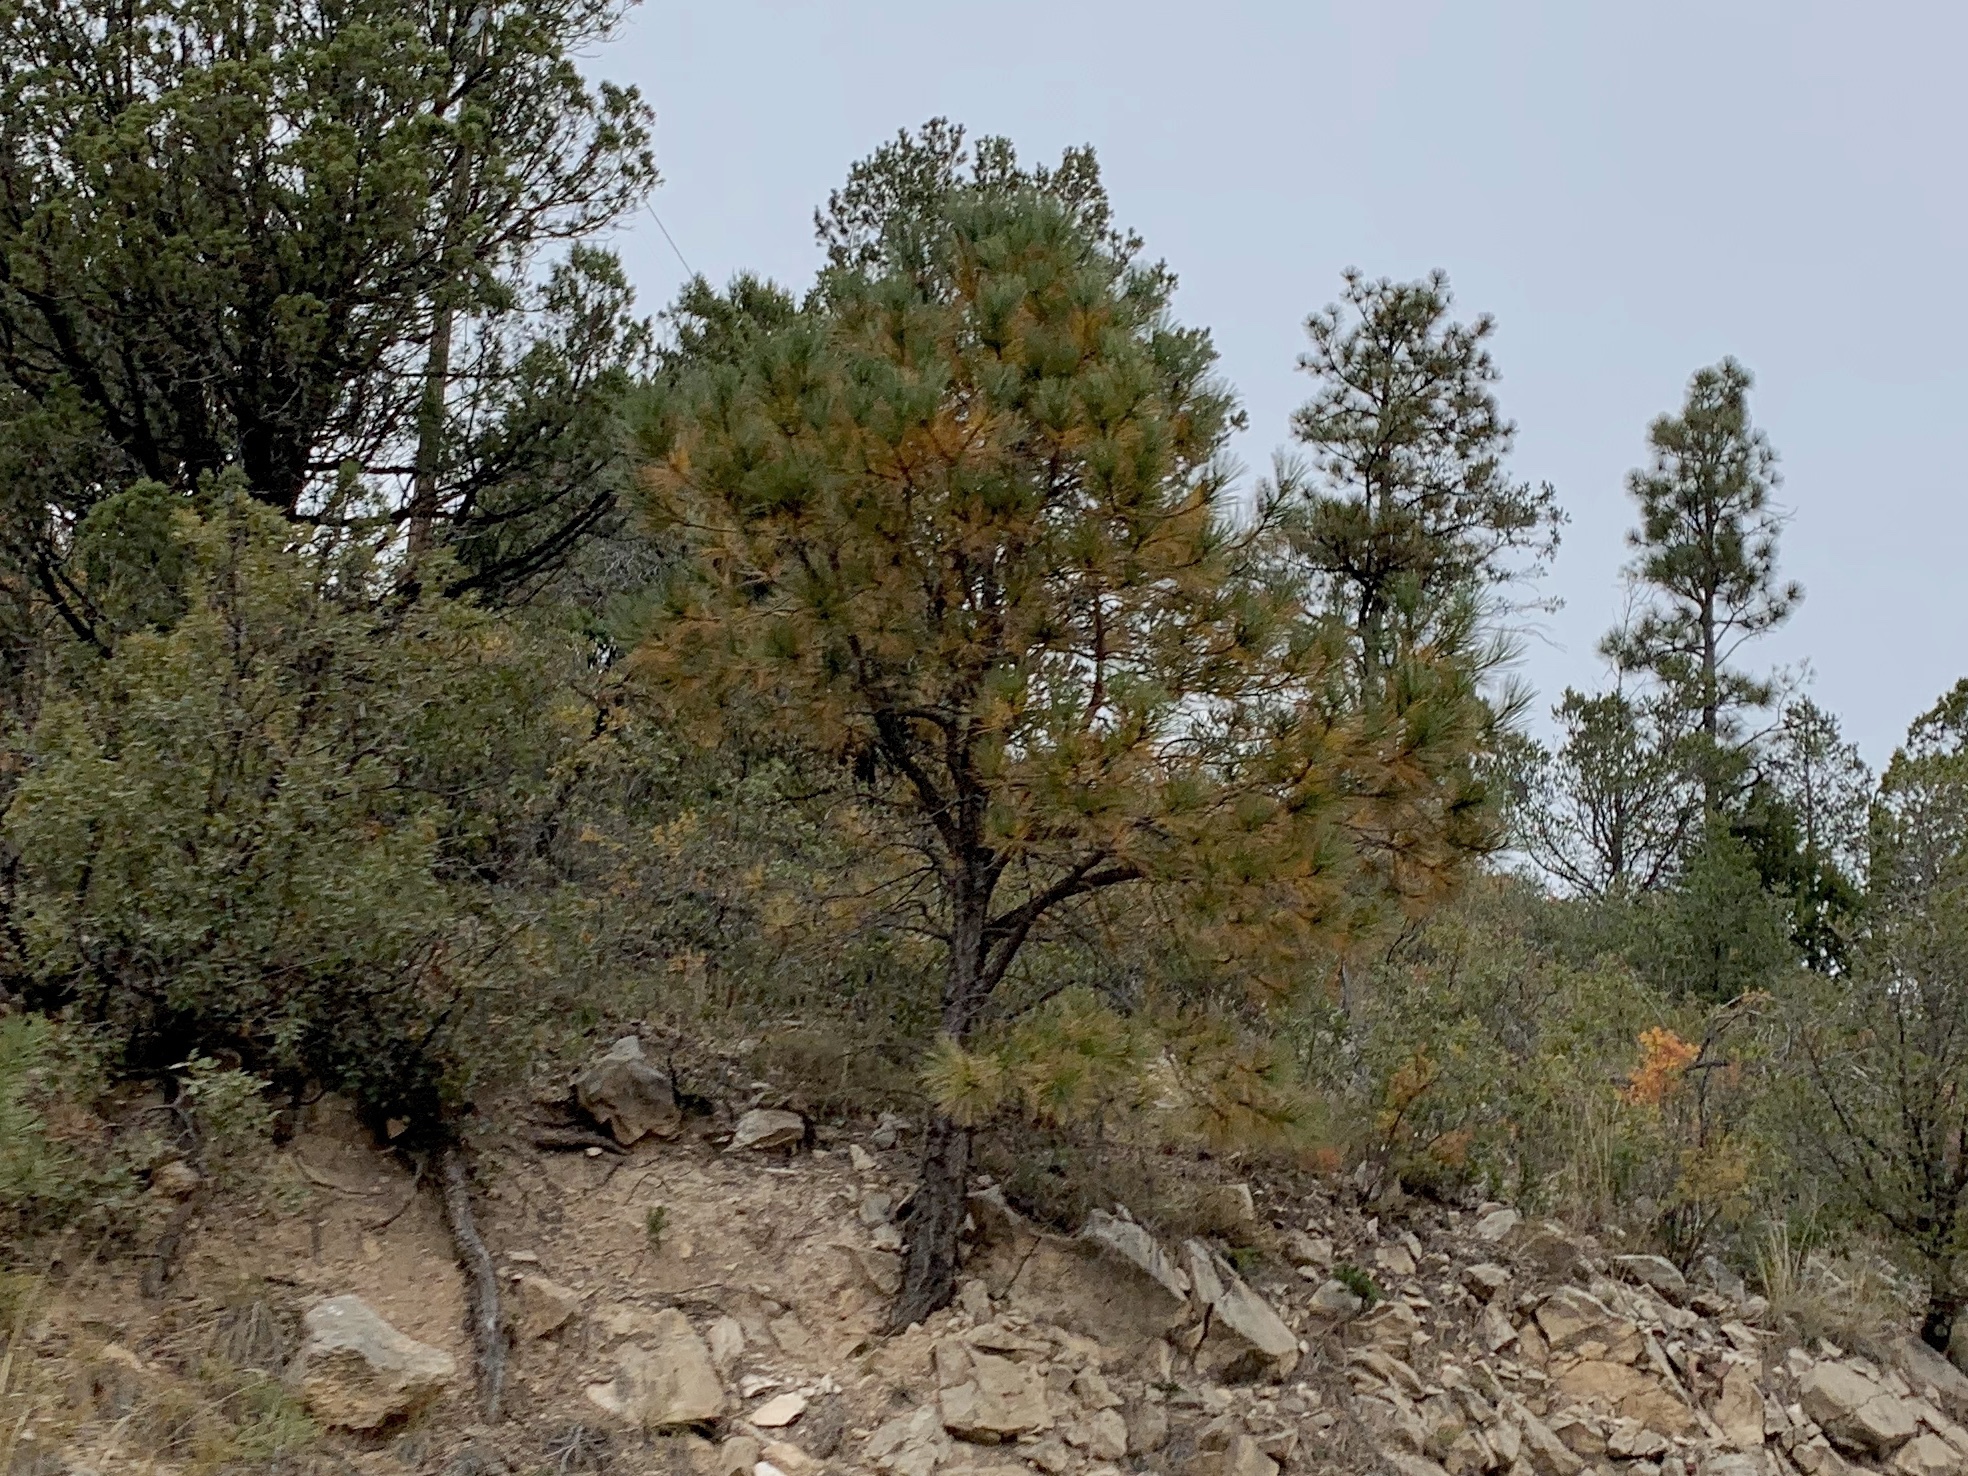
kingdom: Plantae
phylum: Tracheophyta
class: Pinopsida
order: Pinales
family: Pinaceae
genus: Pinus
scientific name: Pinus ponderosa
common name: Western yellow-pine
